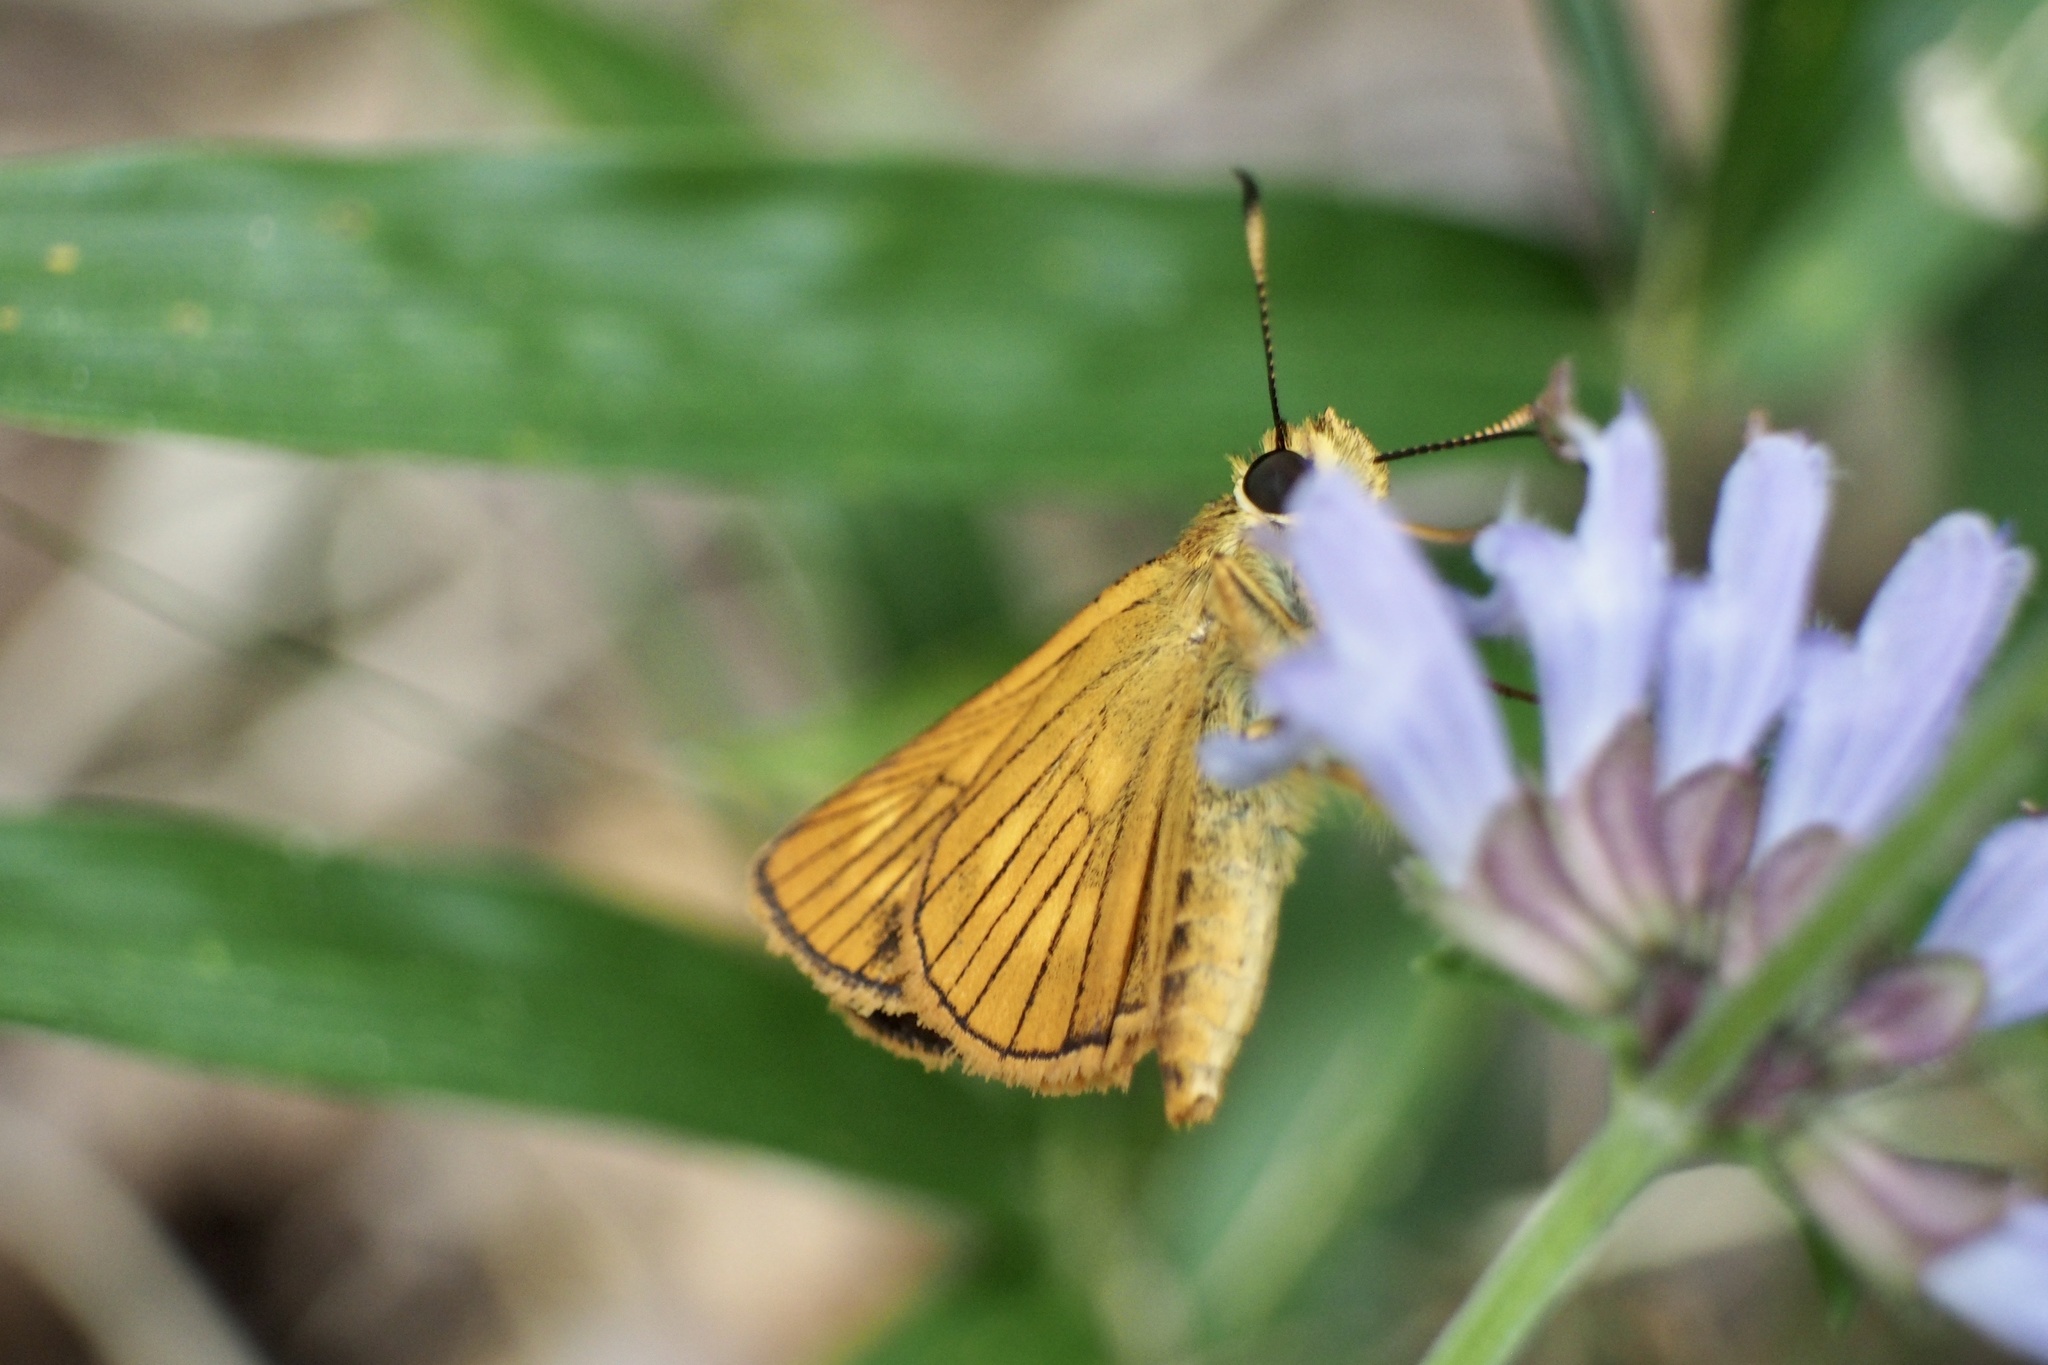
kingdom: Animalia
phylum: Arthropoda
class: Insecta
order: Lepidoptera
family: Hesperiidae
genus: Ochlodes
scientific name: Ochlodes ochracea
